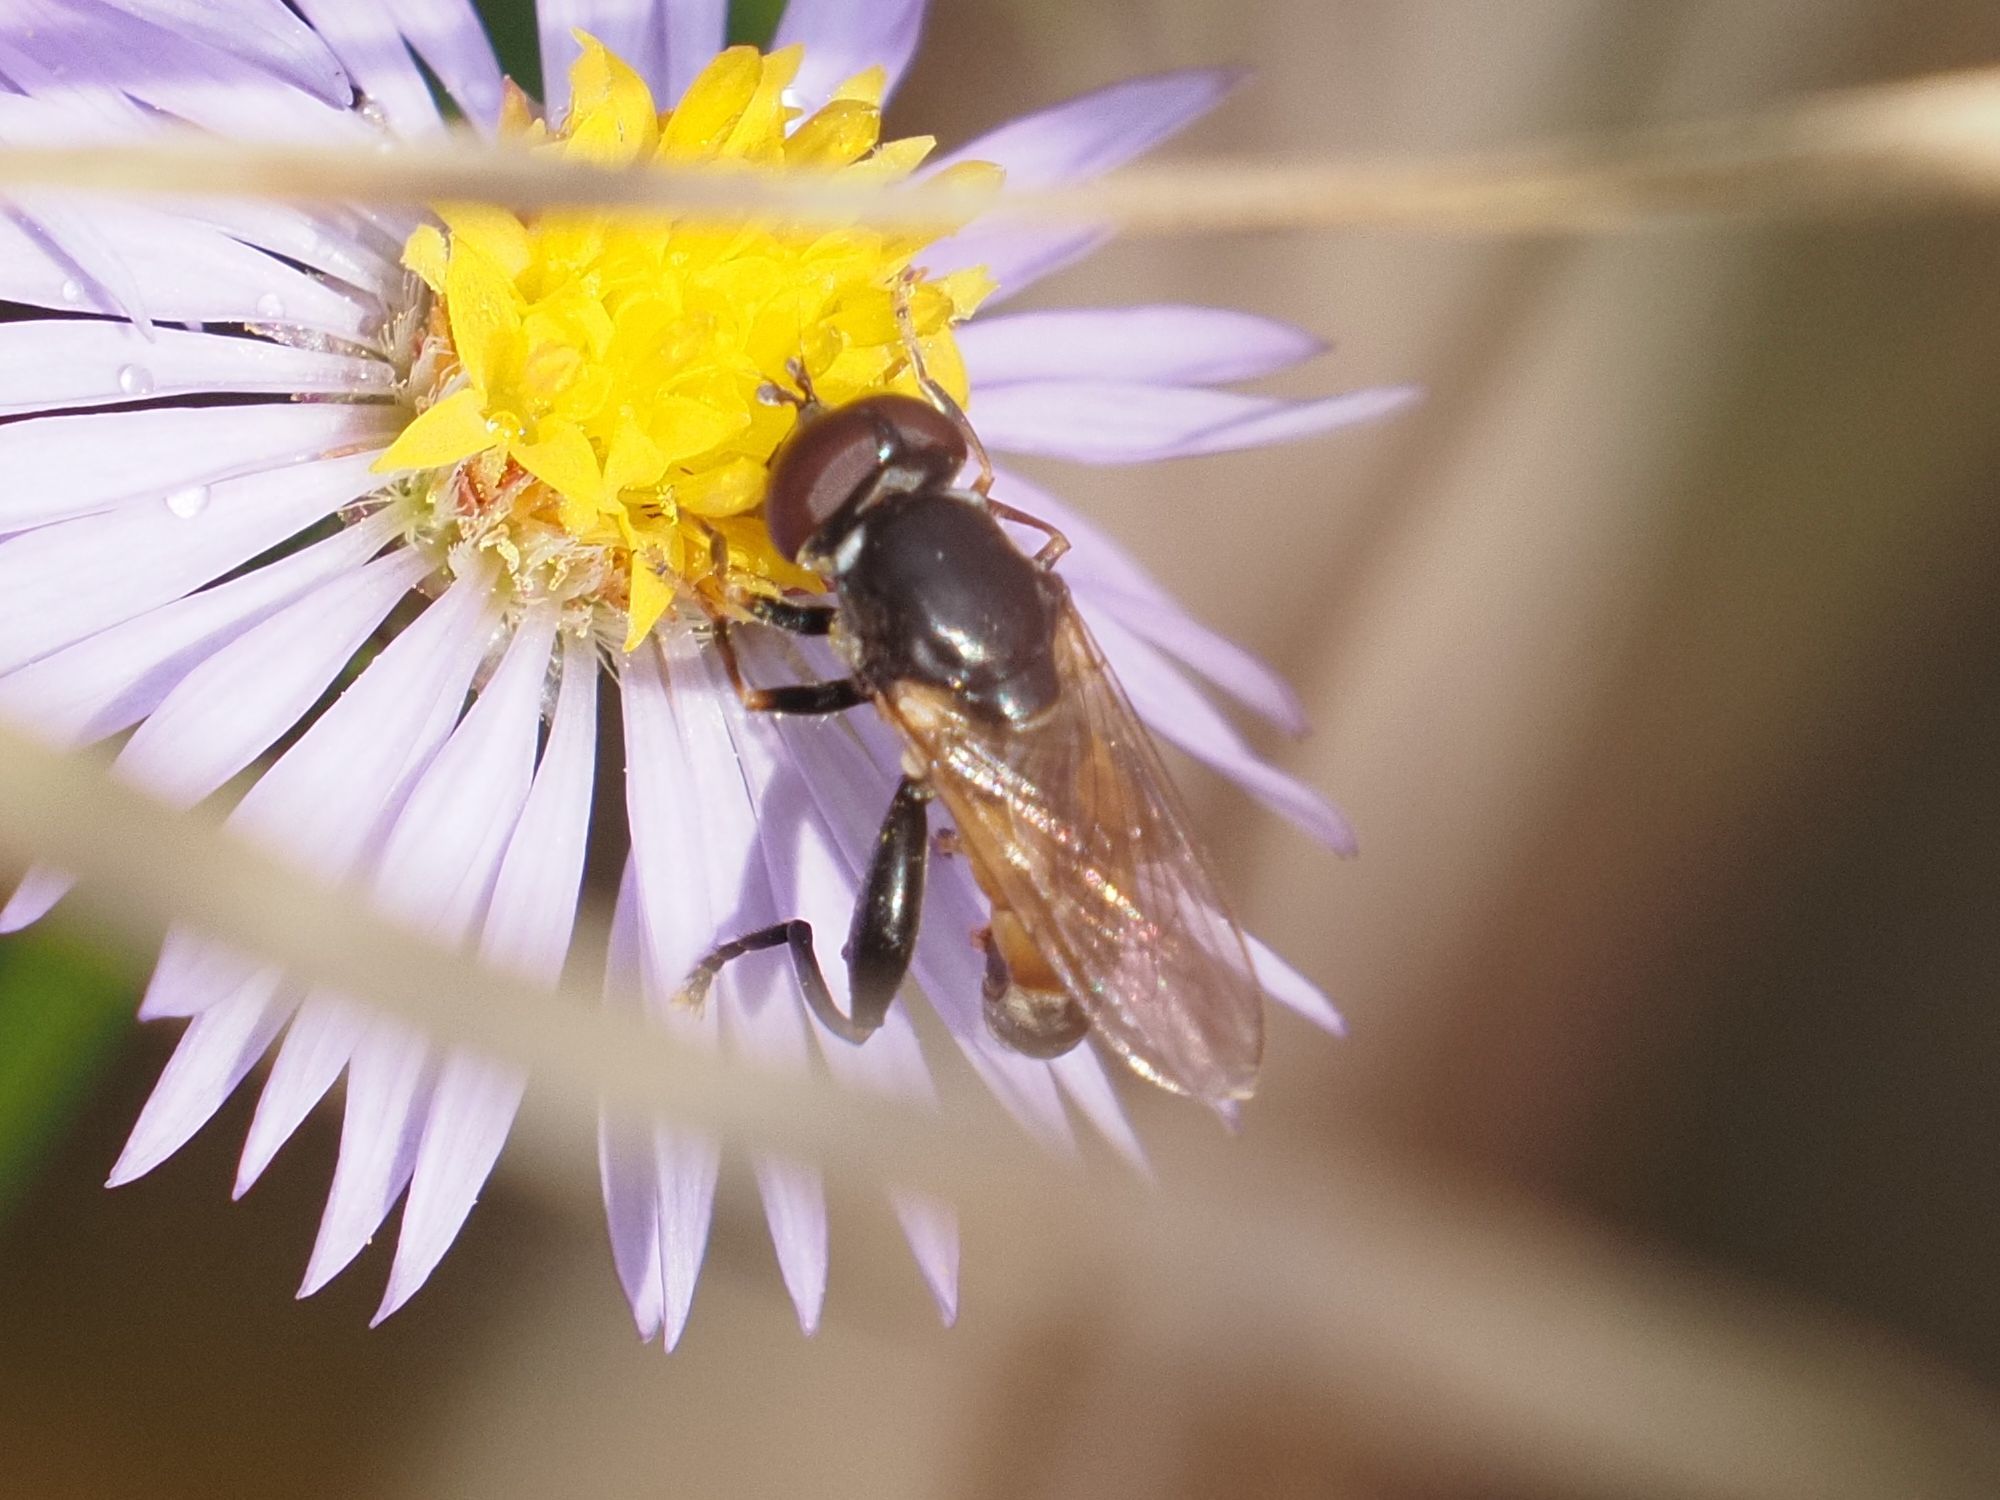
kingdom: Animalia
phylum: Arthropoda
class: Insecta
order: Diptera
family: Syrphidae
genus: Tropidia
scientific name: Tropidia scita
